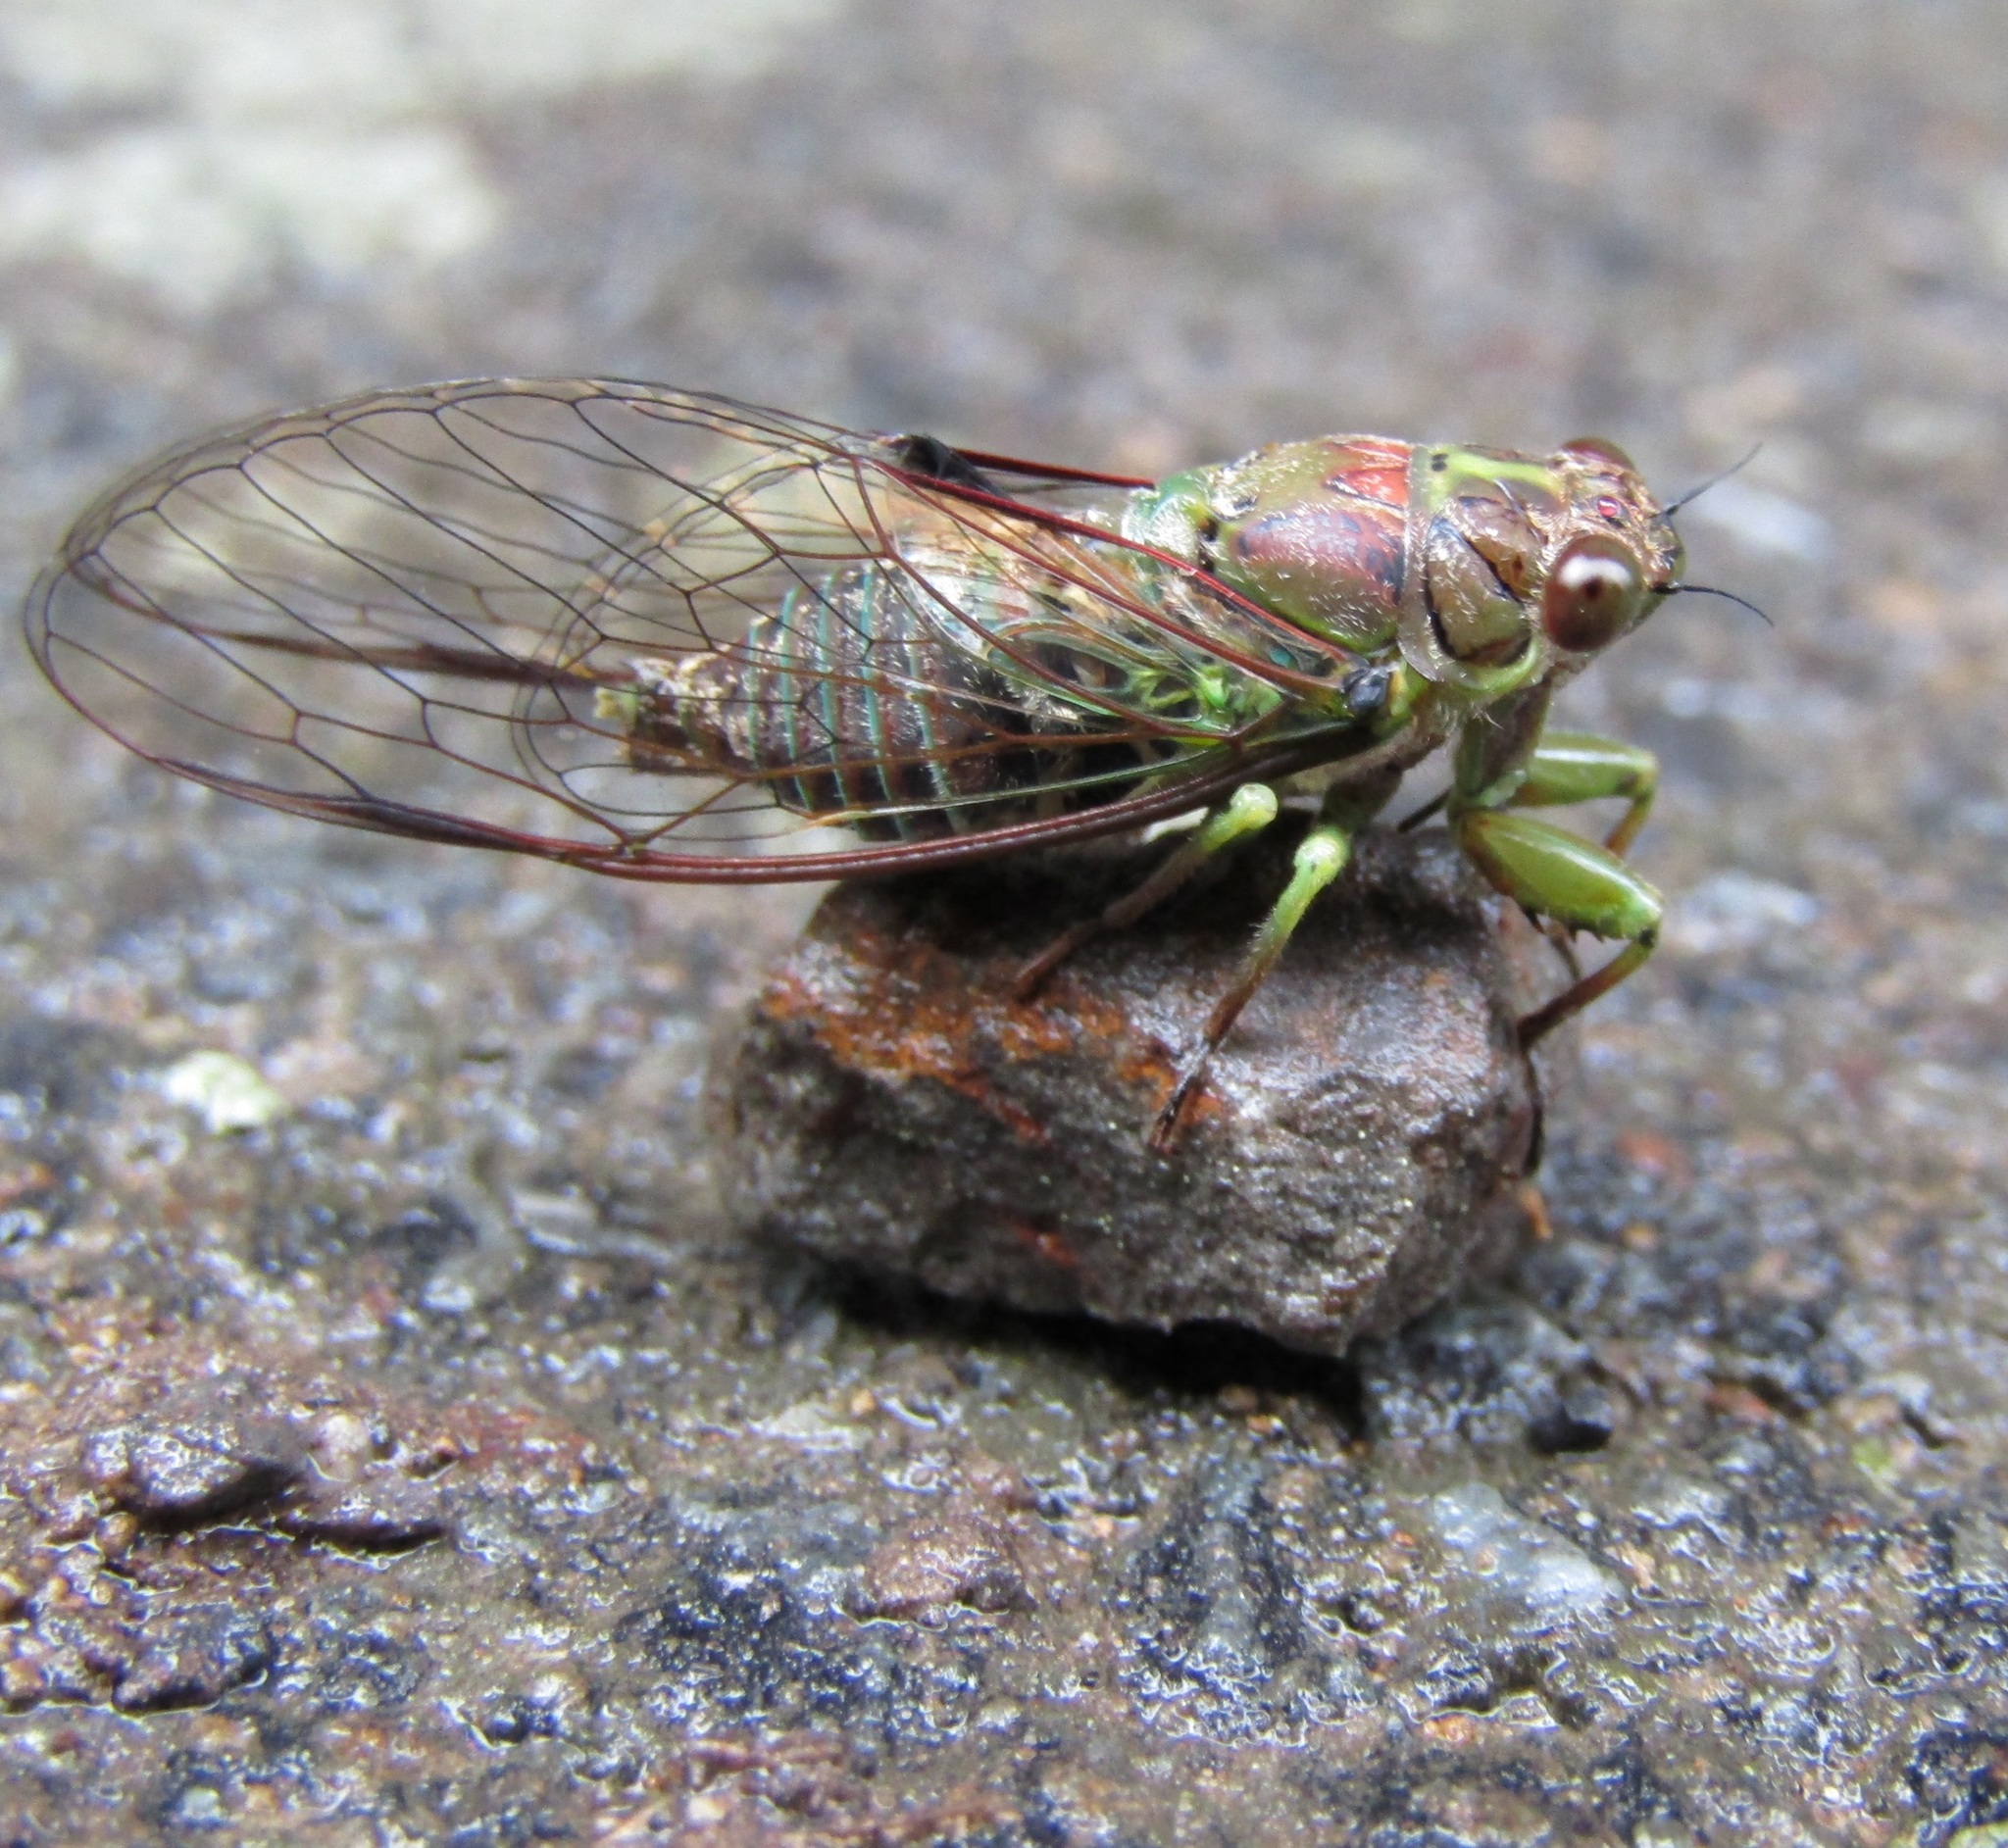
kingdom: Animalia
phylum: Arthropoda
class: Insecta
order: Hemiptera
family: Cicadidae
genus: Kikihia
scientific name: Kikihia scutellaris
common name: Lesser bronze cicada
